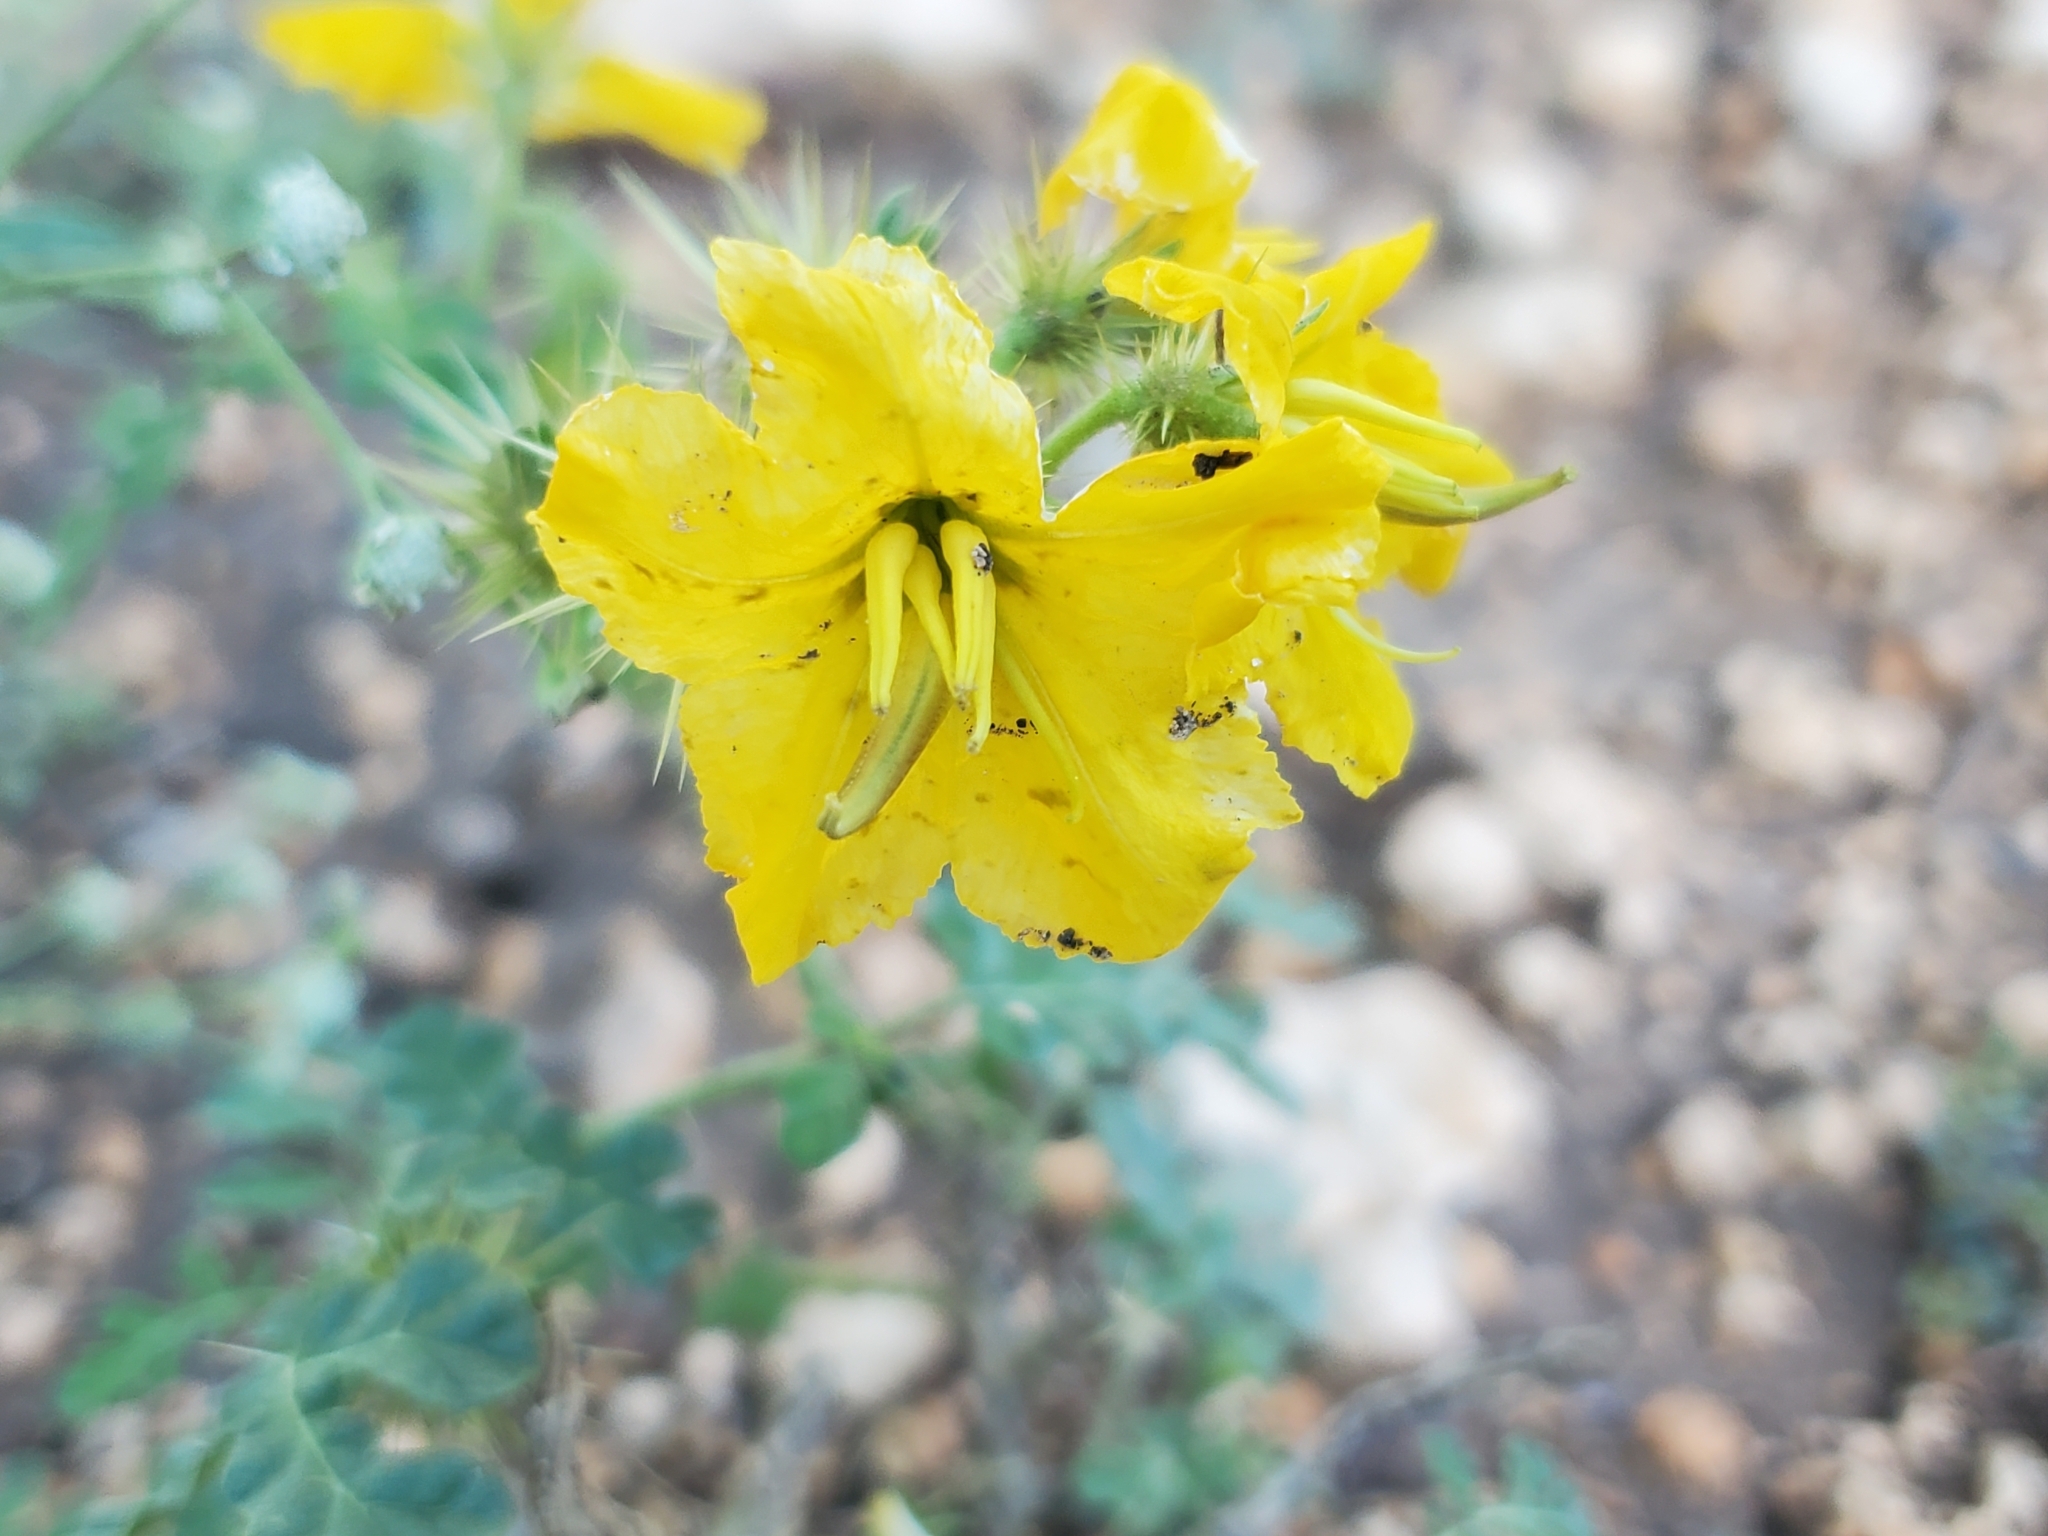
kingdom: Plantae
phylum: Tracheophyta
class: Magnoliopsida
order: Solanales
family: Solanaceae
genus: Solanum
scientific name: Solanum angustifolium
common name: Buffalobur nightshade
